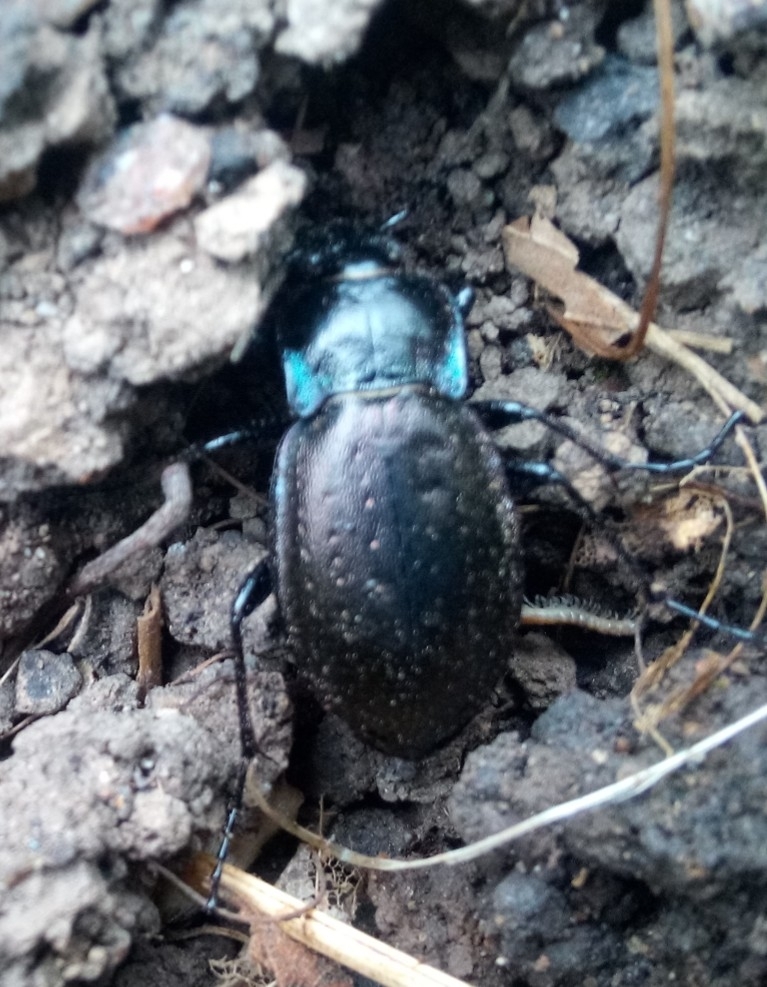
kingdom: Animalia
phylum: Arthropoda
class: Insecta
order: Coleoptera
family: Carabidae
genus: Carabus
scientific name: Carabus nemoralis
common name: European ground beetle
